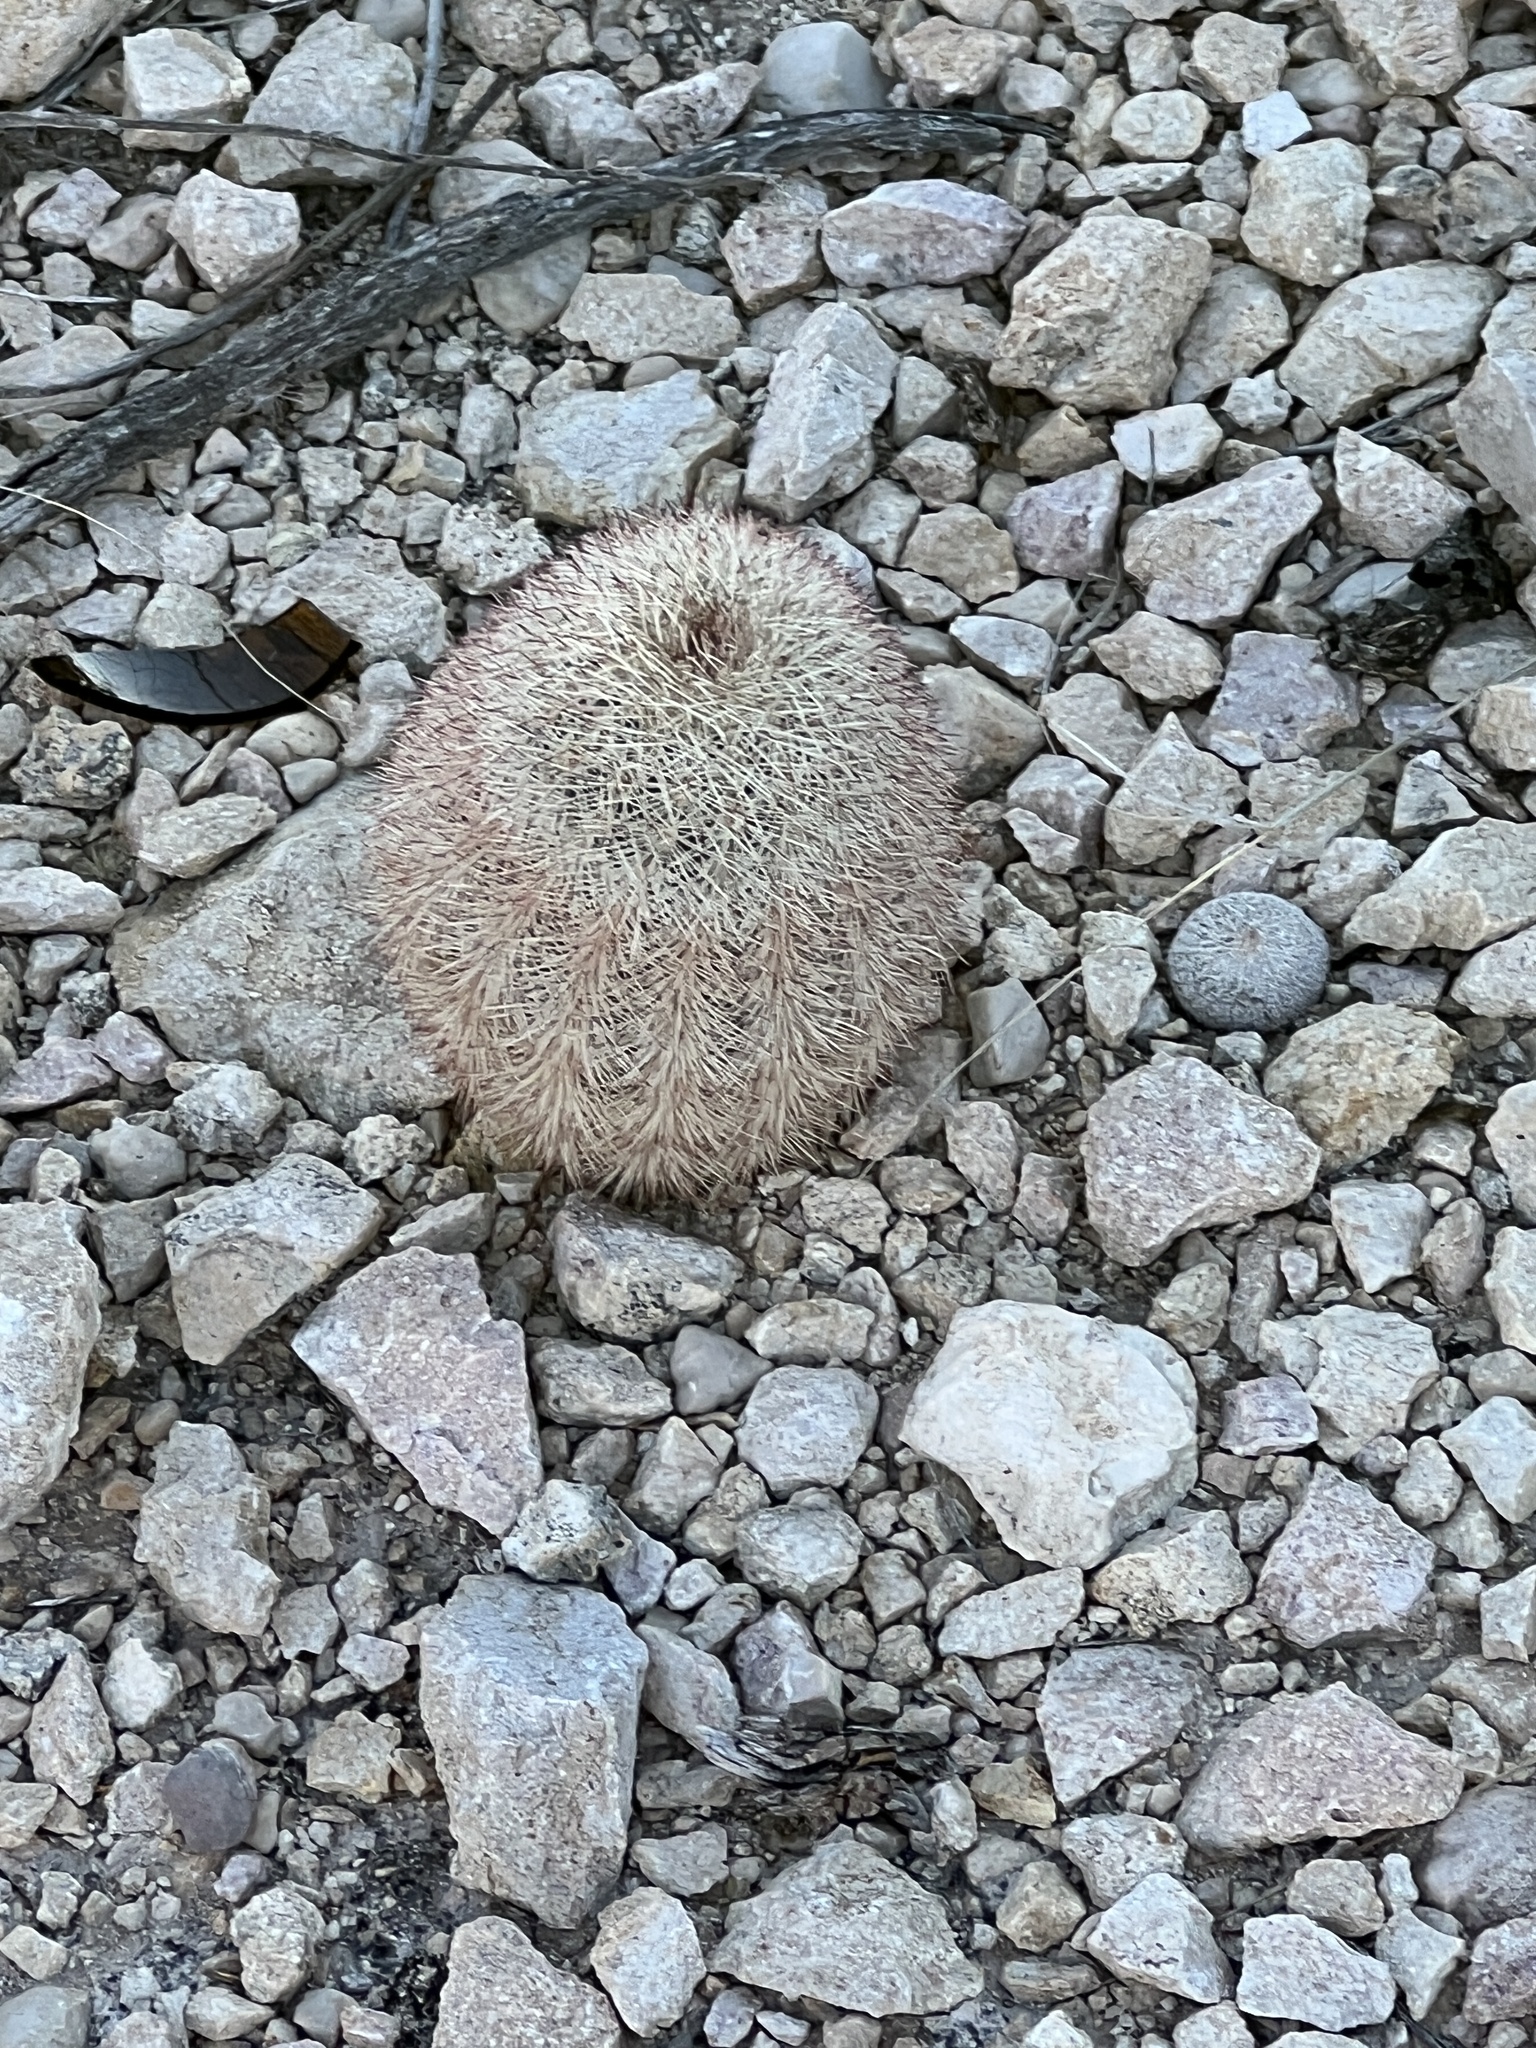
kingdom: Plantae
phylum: Tracheophyta
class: Magnoliopsida
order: Caryophyllales
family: Cactaceae
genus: Echinocereus
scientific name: Echinocereus dasyacanthus
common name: Spiny hedgehog cactus
